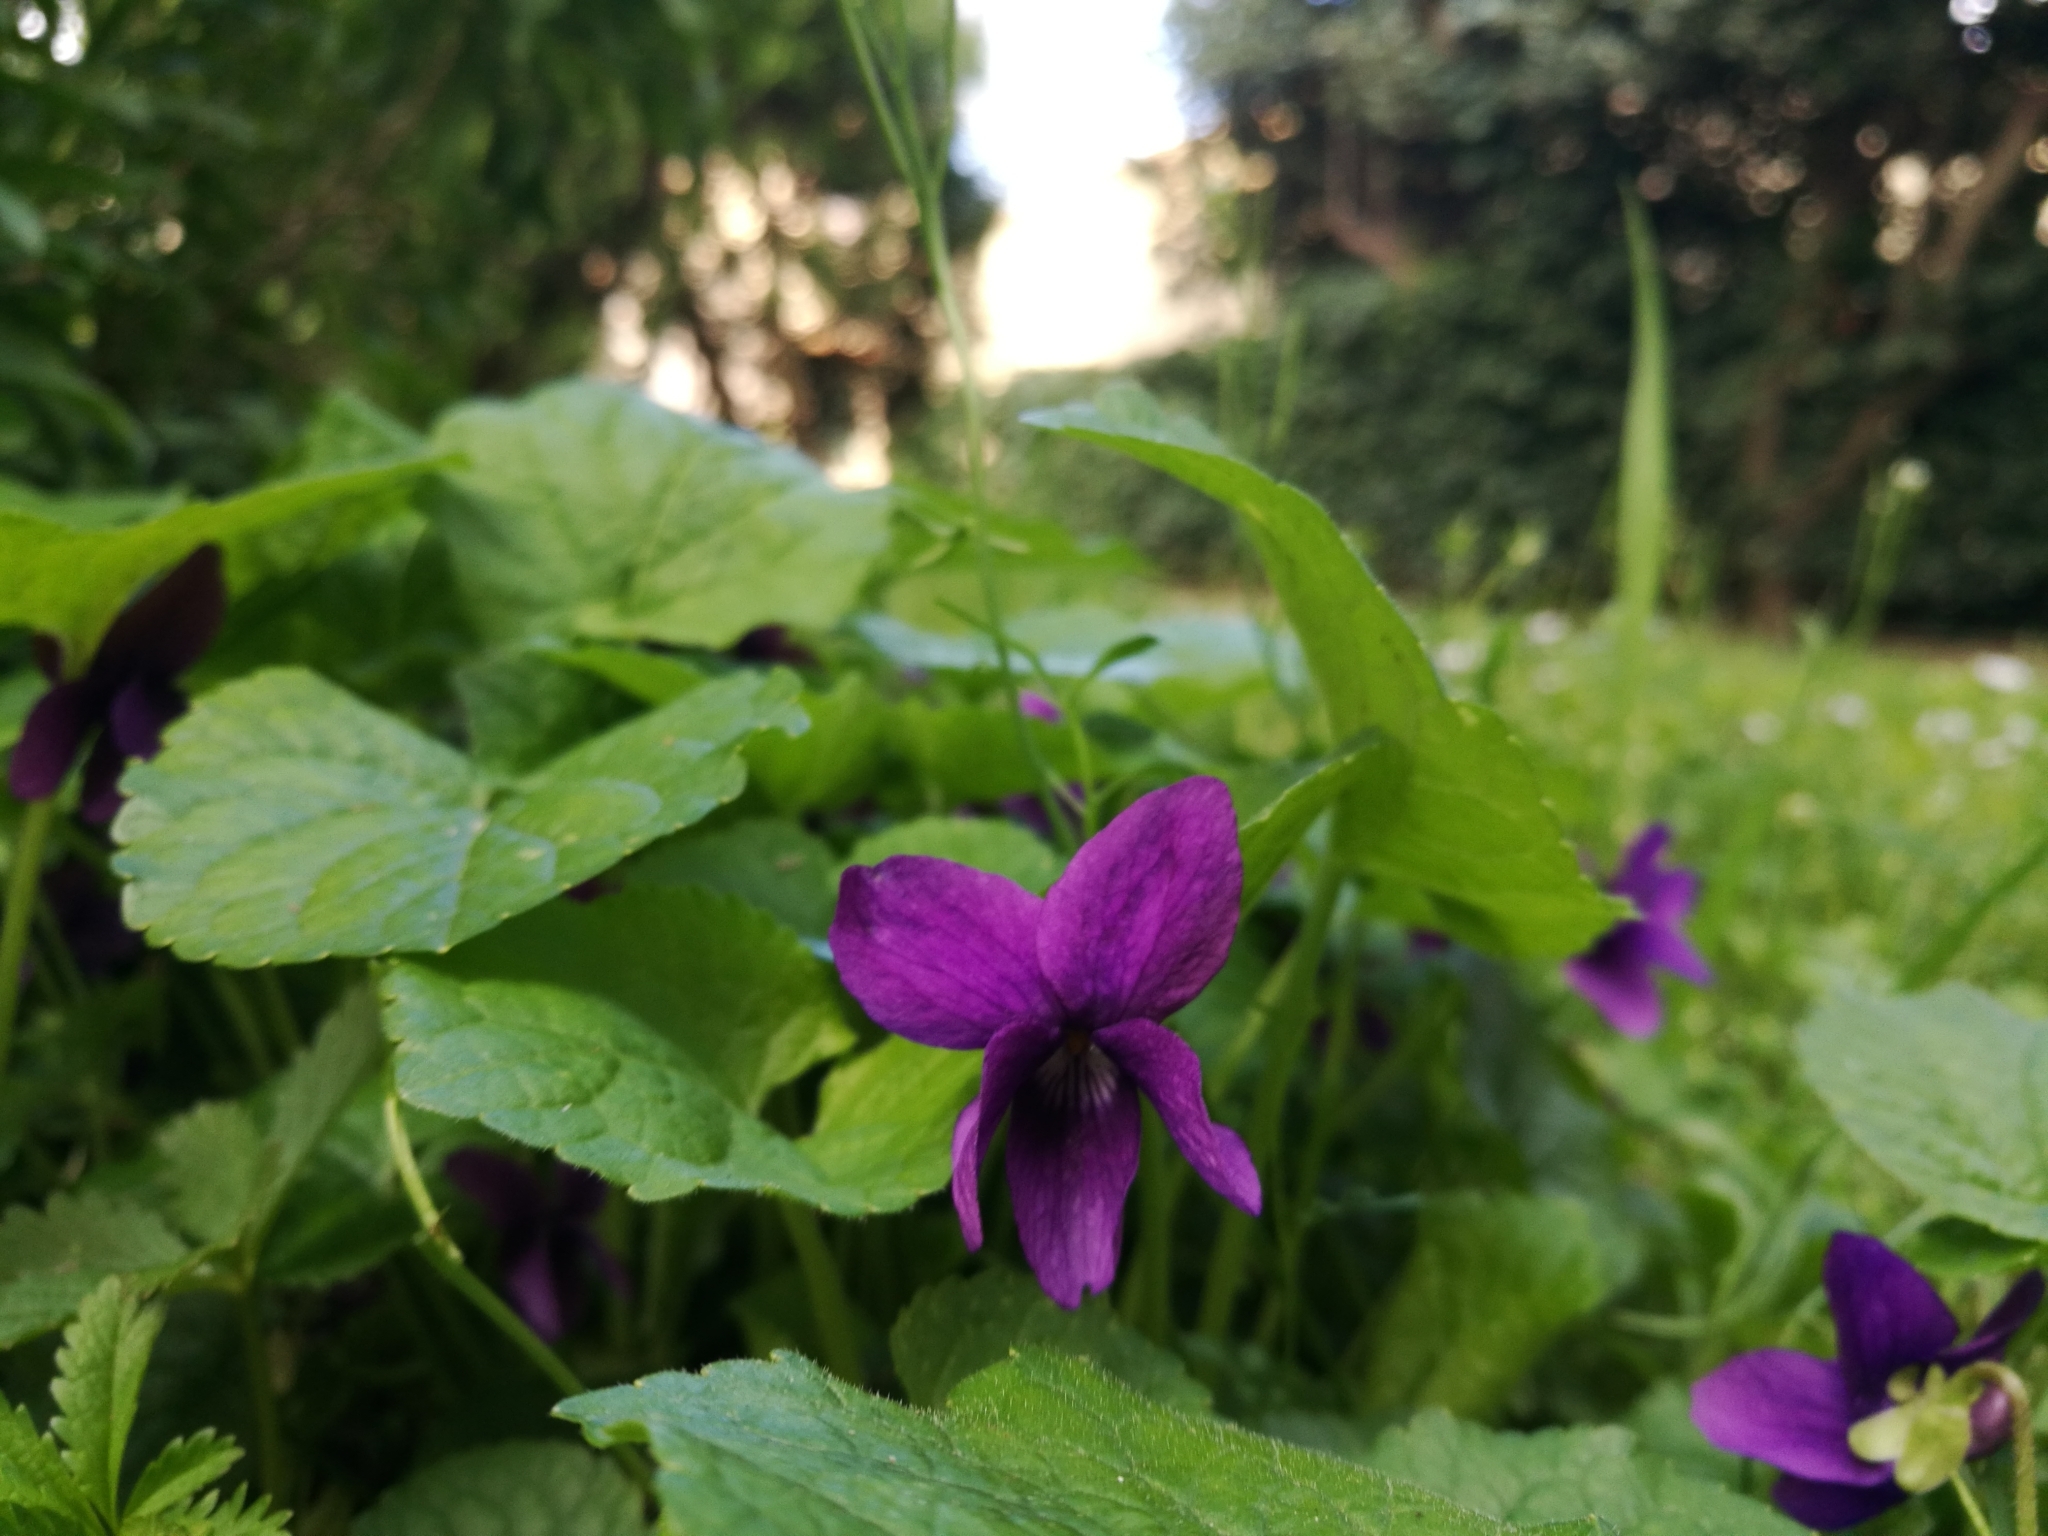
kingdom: Plantae
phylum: Tracheophyta
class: Magnoliopsida
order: Malpighiales
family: Violaceae
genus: Viola
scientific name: Viola odorata
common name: Sweet violet
